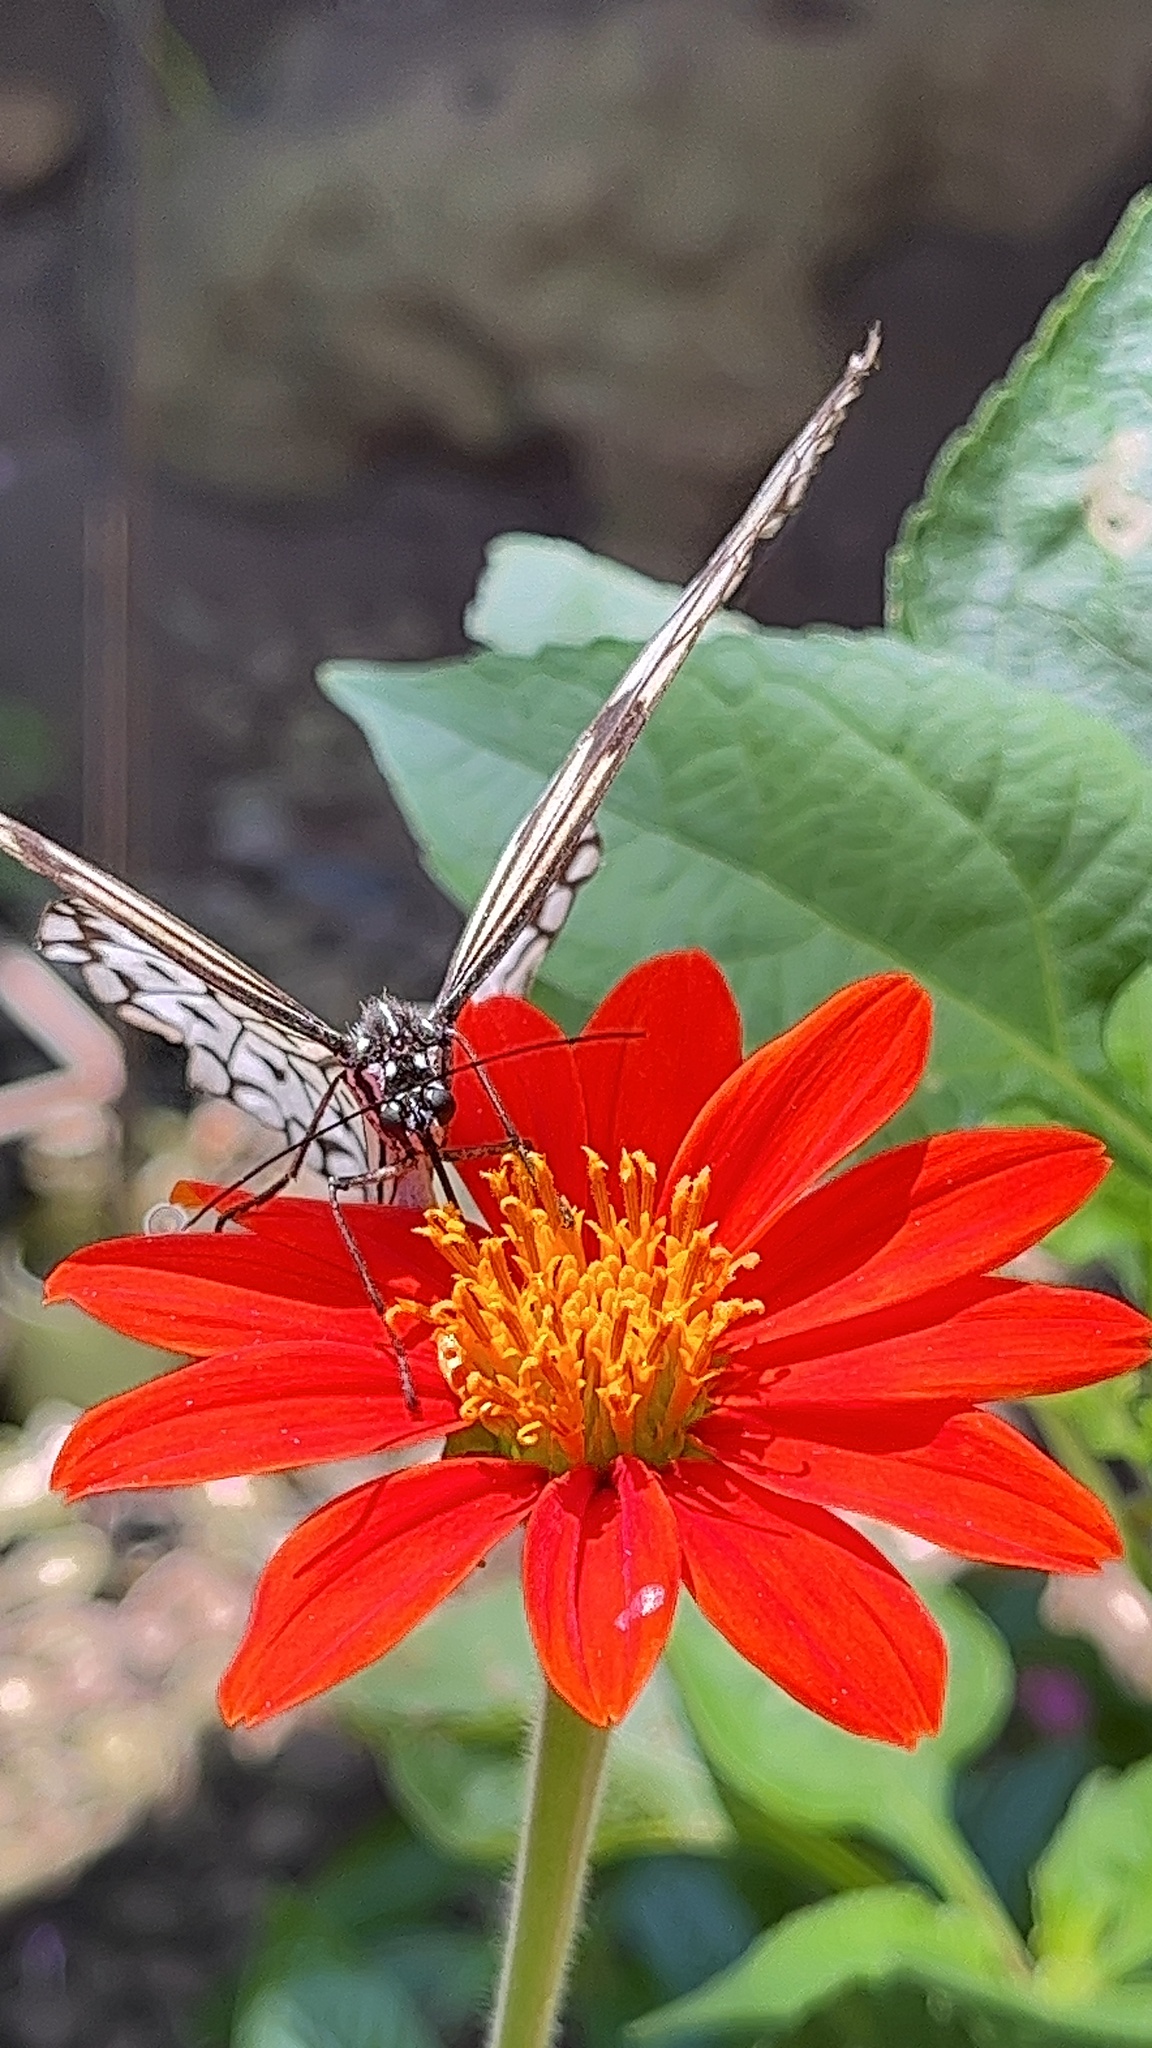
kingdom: Animalia
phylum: Arthropoda
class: Insecta
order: Lepidoptera
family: Nymphalidae
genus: Idea
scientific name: Idea leuconoe
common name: Rice paper butterfly
